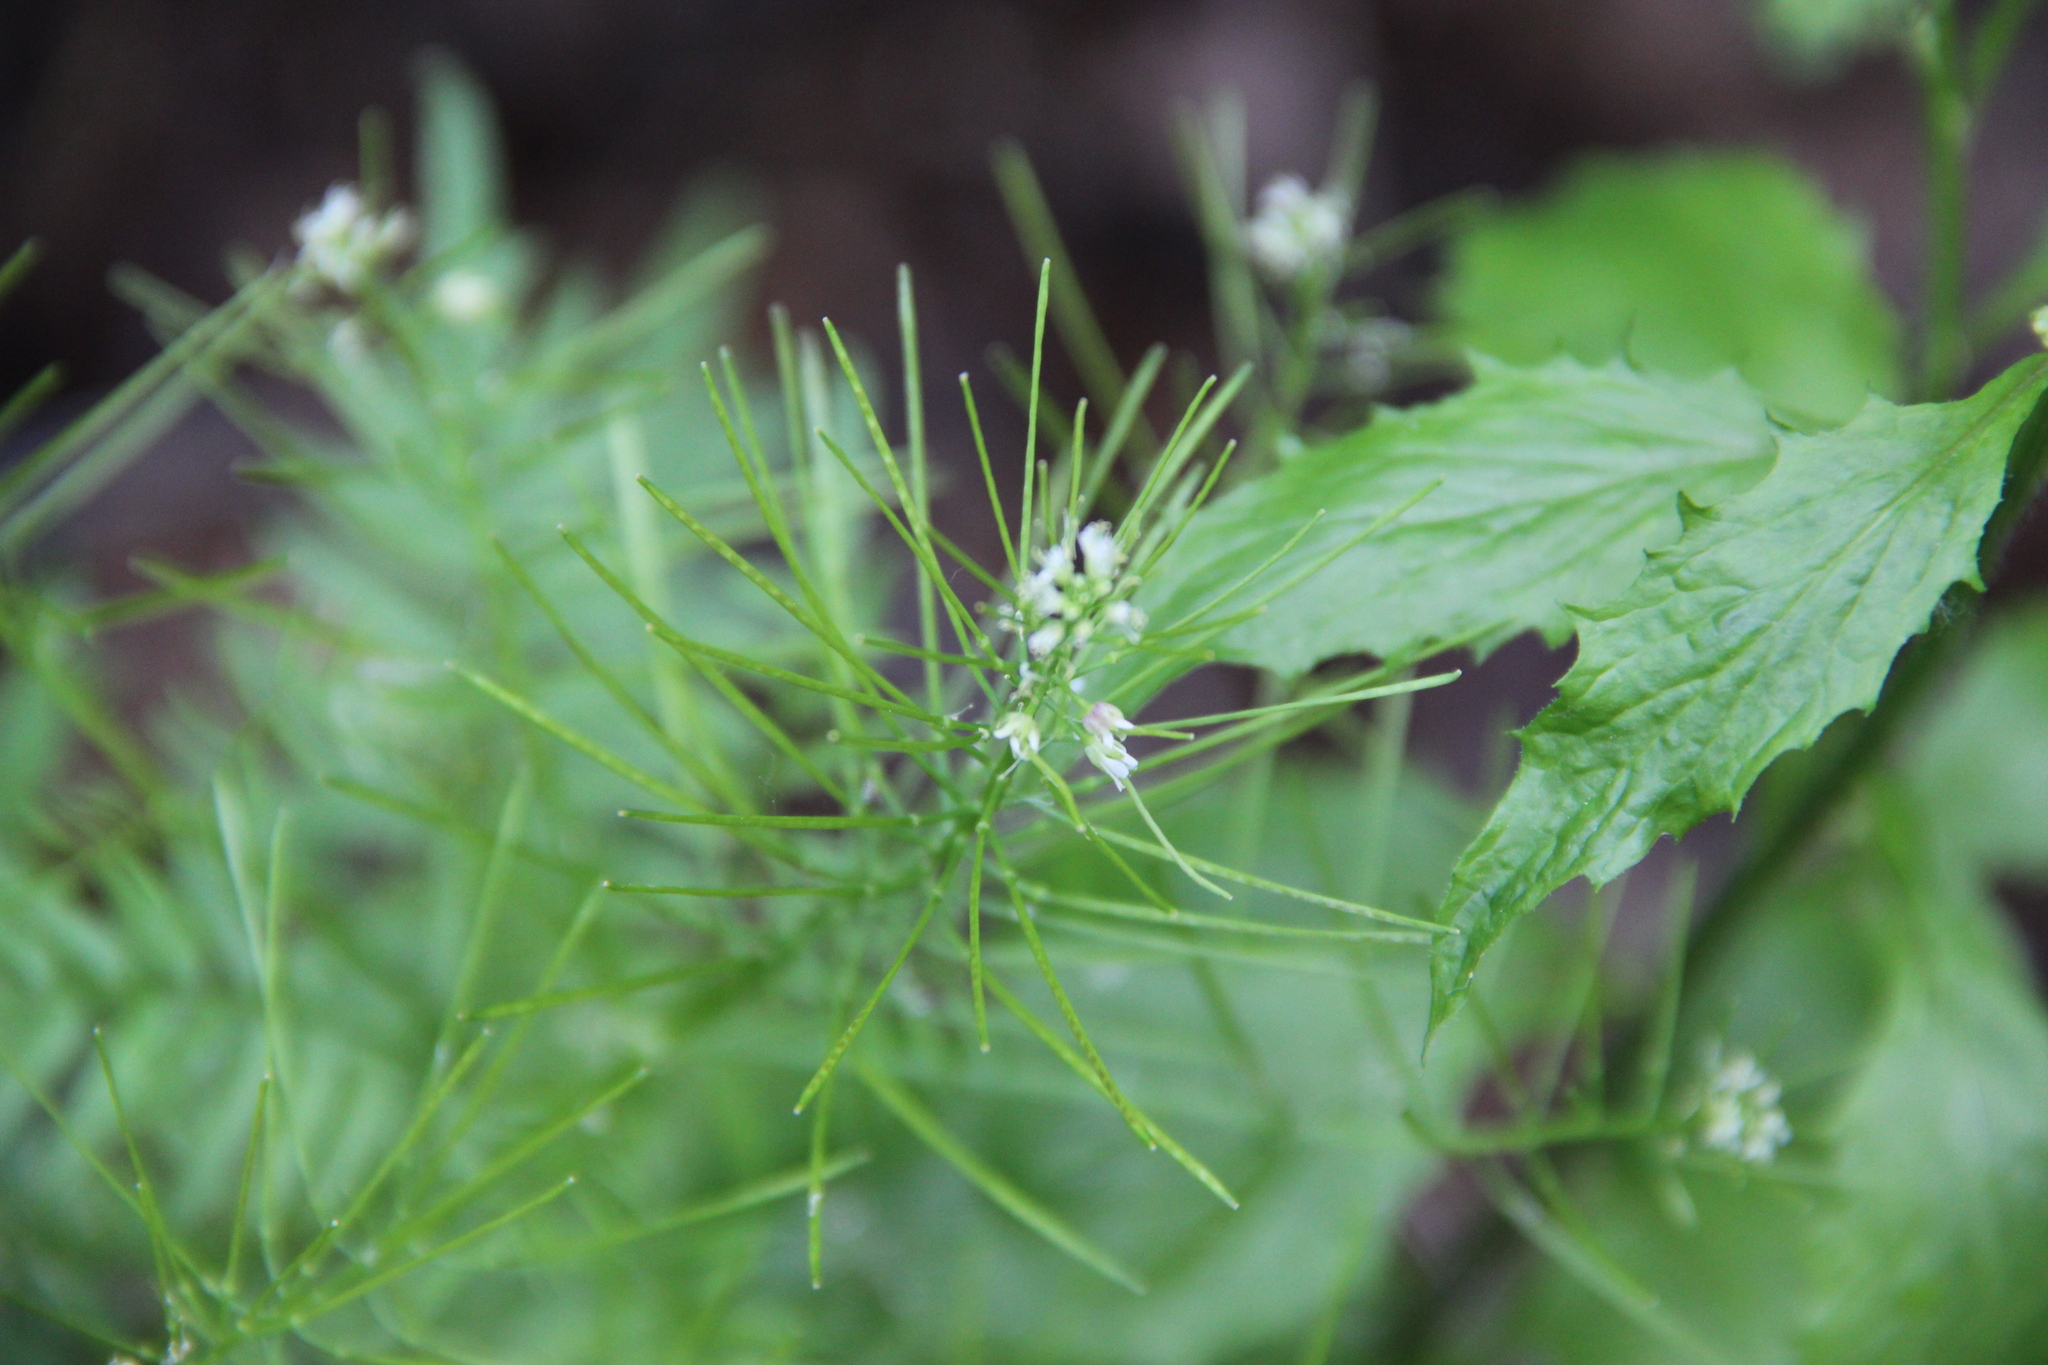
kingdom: Plantae
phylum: Tracheophyta
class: Magnoliopsida
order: Brassicales
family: Brassicaceae
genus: Cardamine
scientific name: Cardamine impatiens
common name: Narrow-leaved bitter-cress
